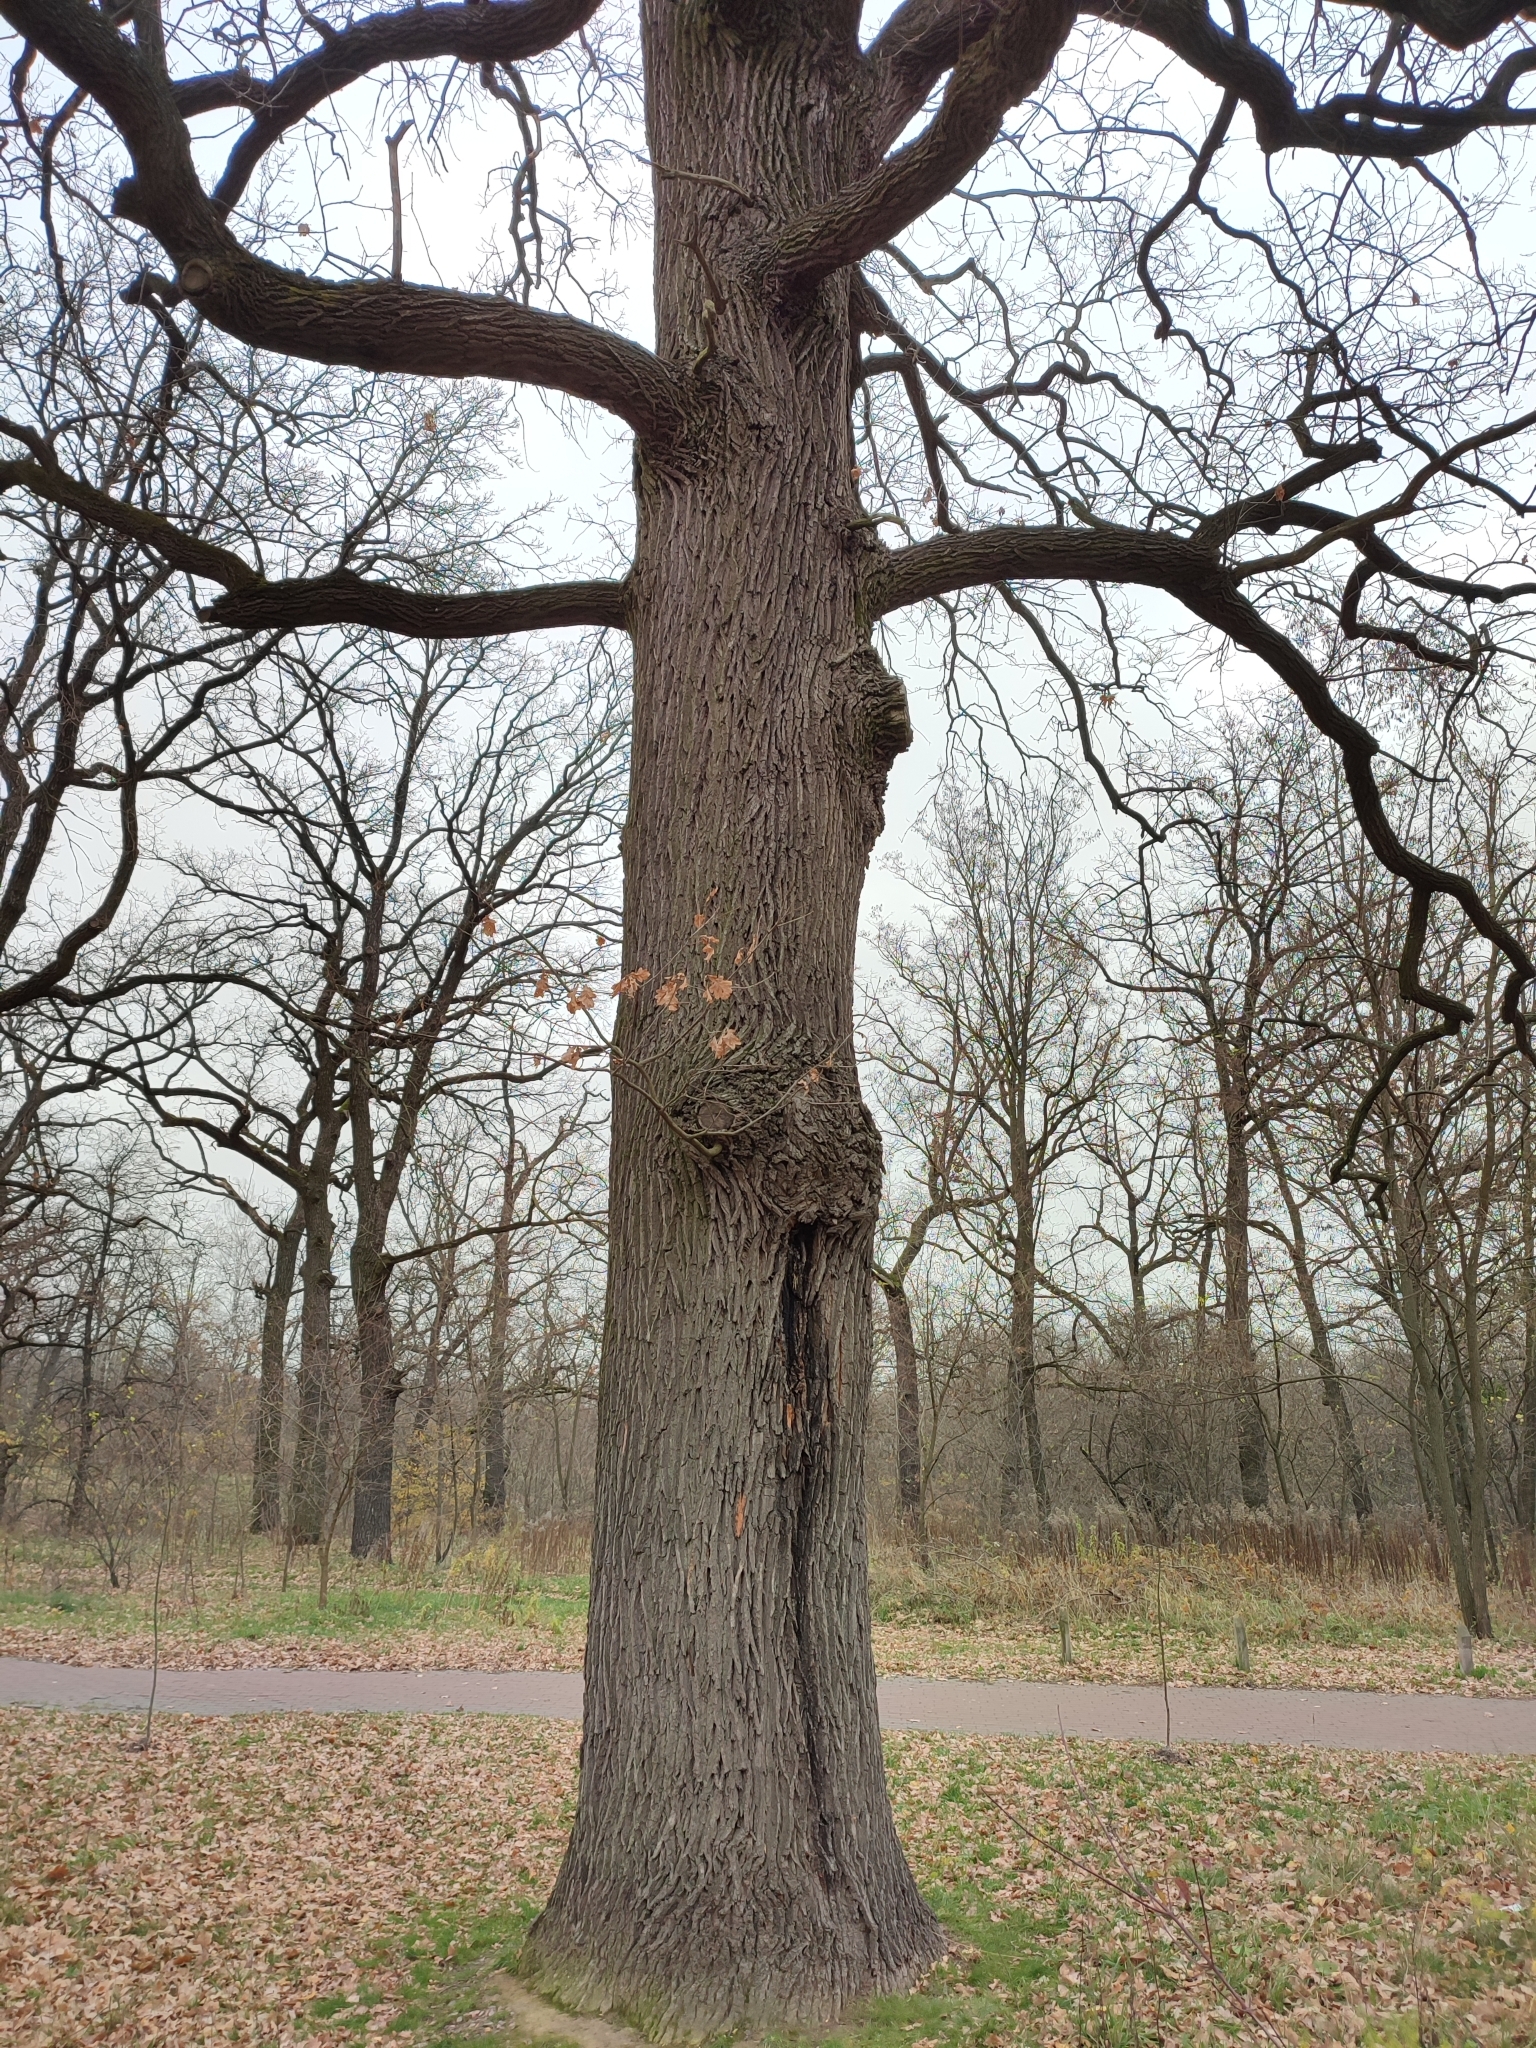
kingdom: Plantae
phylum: Tracheophyta
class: Magnoliopsida
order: Fagales
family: Fagaceae
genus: Quercus
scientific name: Quercus robur
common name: Pedunculate oak
